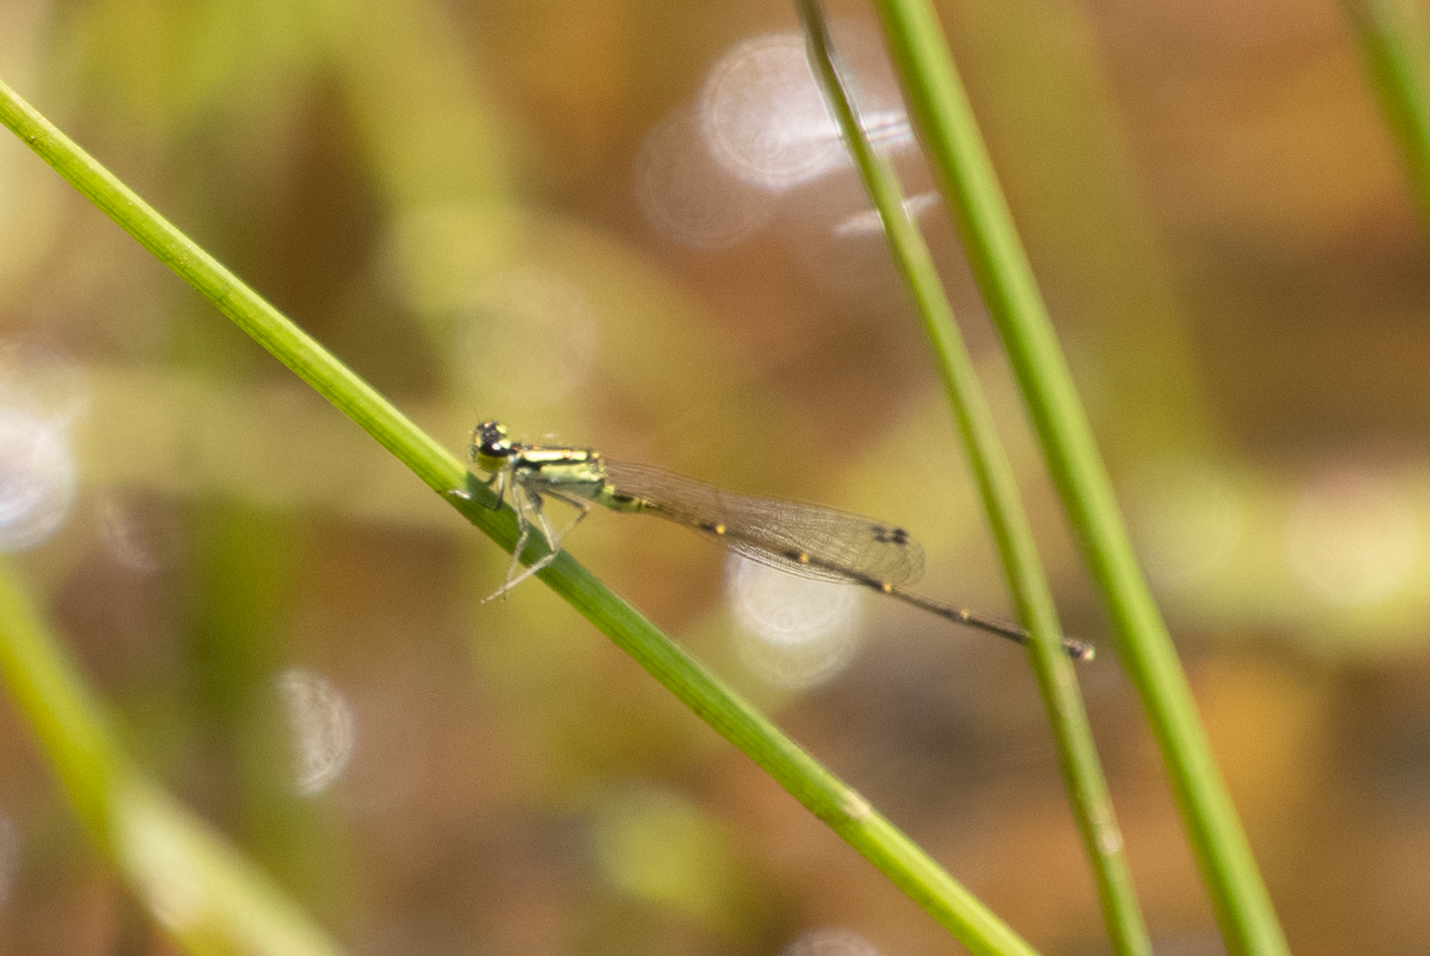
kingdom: Animalia
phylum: Arthropoda
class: Insecta
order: Odonata
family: Coenagrionidae
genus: Ischnura
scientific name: Ischnura posita
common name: Fragile forktail
